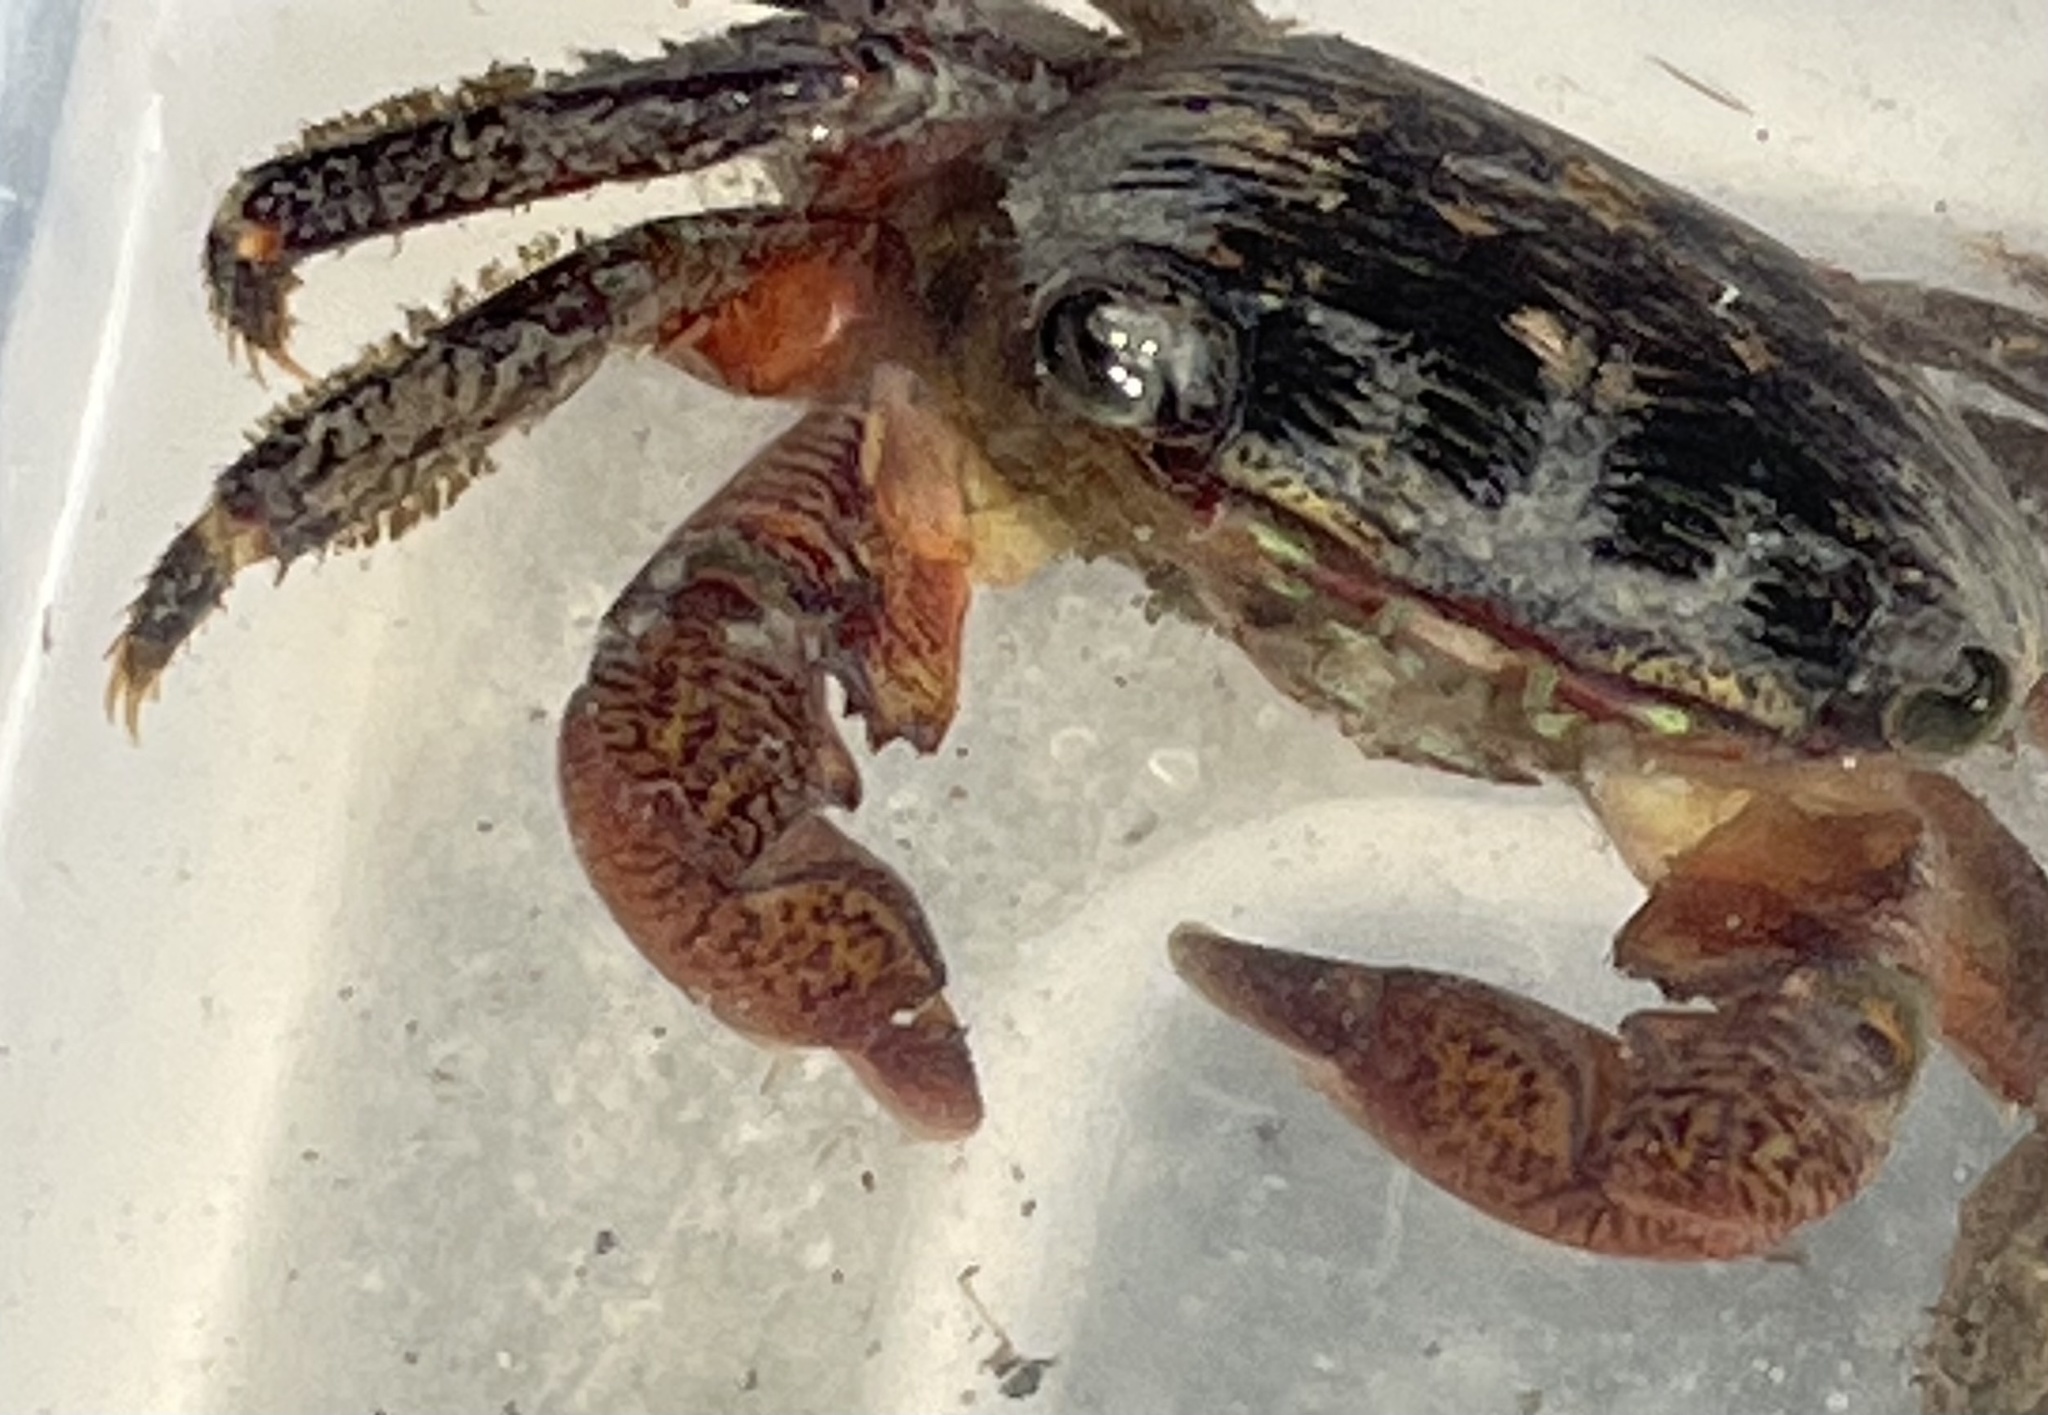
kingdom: Animalia
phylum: Arthropoda
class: Malacostraca
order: Decapoda
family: Grapsidae
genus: Pachygrapsus
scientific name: Pachygrapsus crassipes
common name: Striped shore crab
